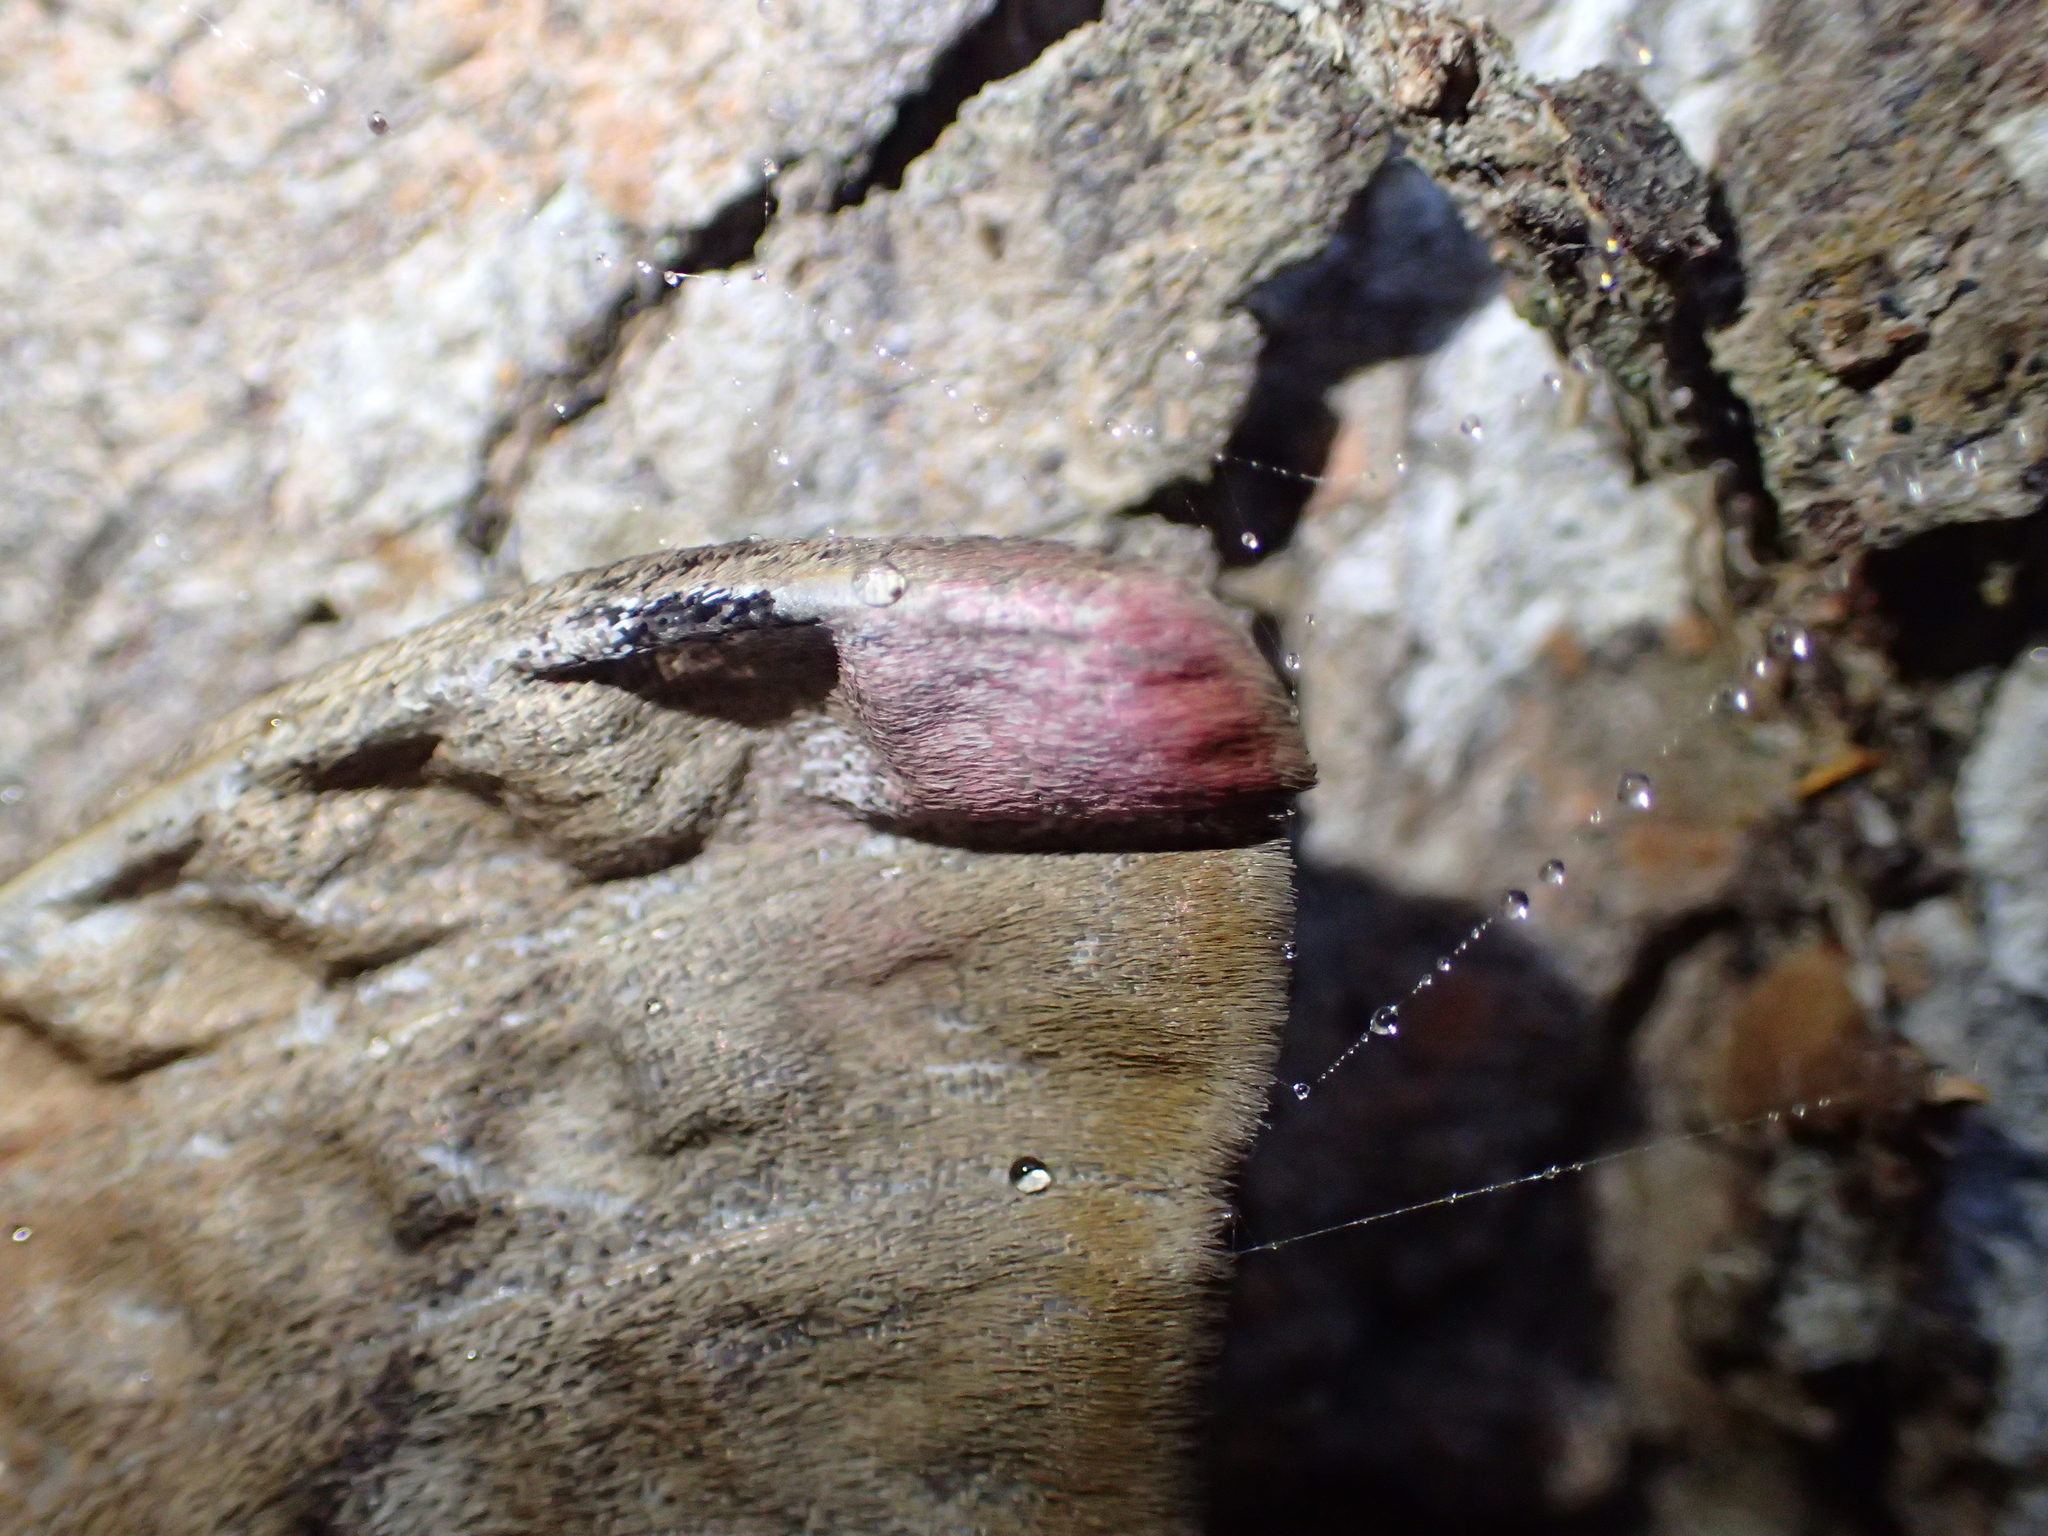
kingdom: Animalia
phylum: Arthropoda
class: Insecta
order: Lepidoptera
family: Saturniidae
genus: Opodiphthera
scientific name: Opodiphthera
